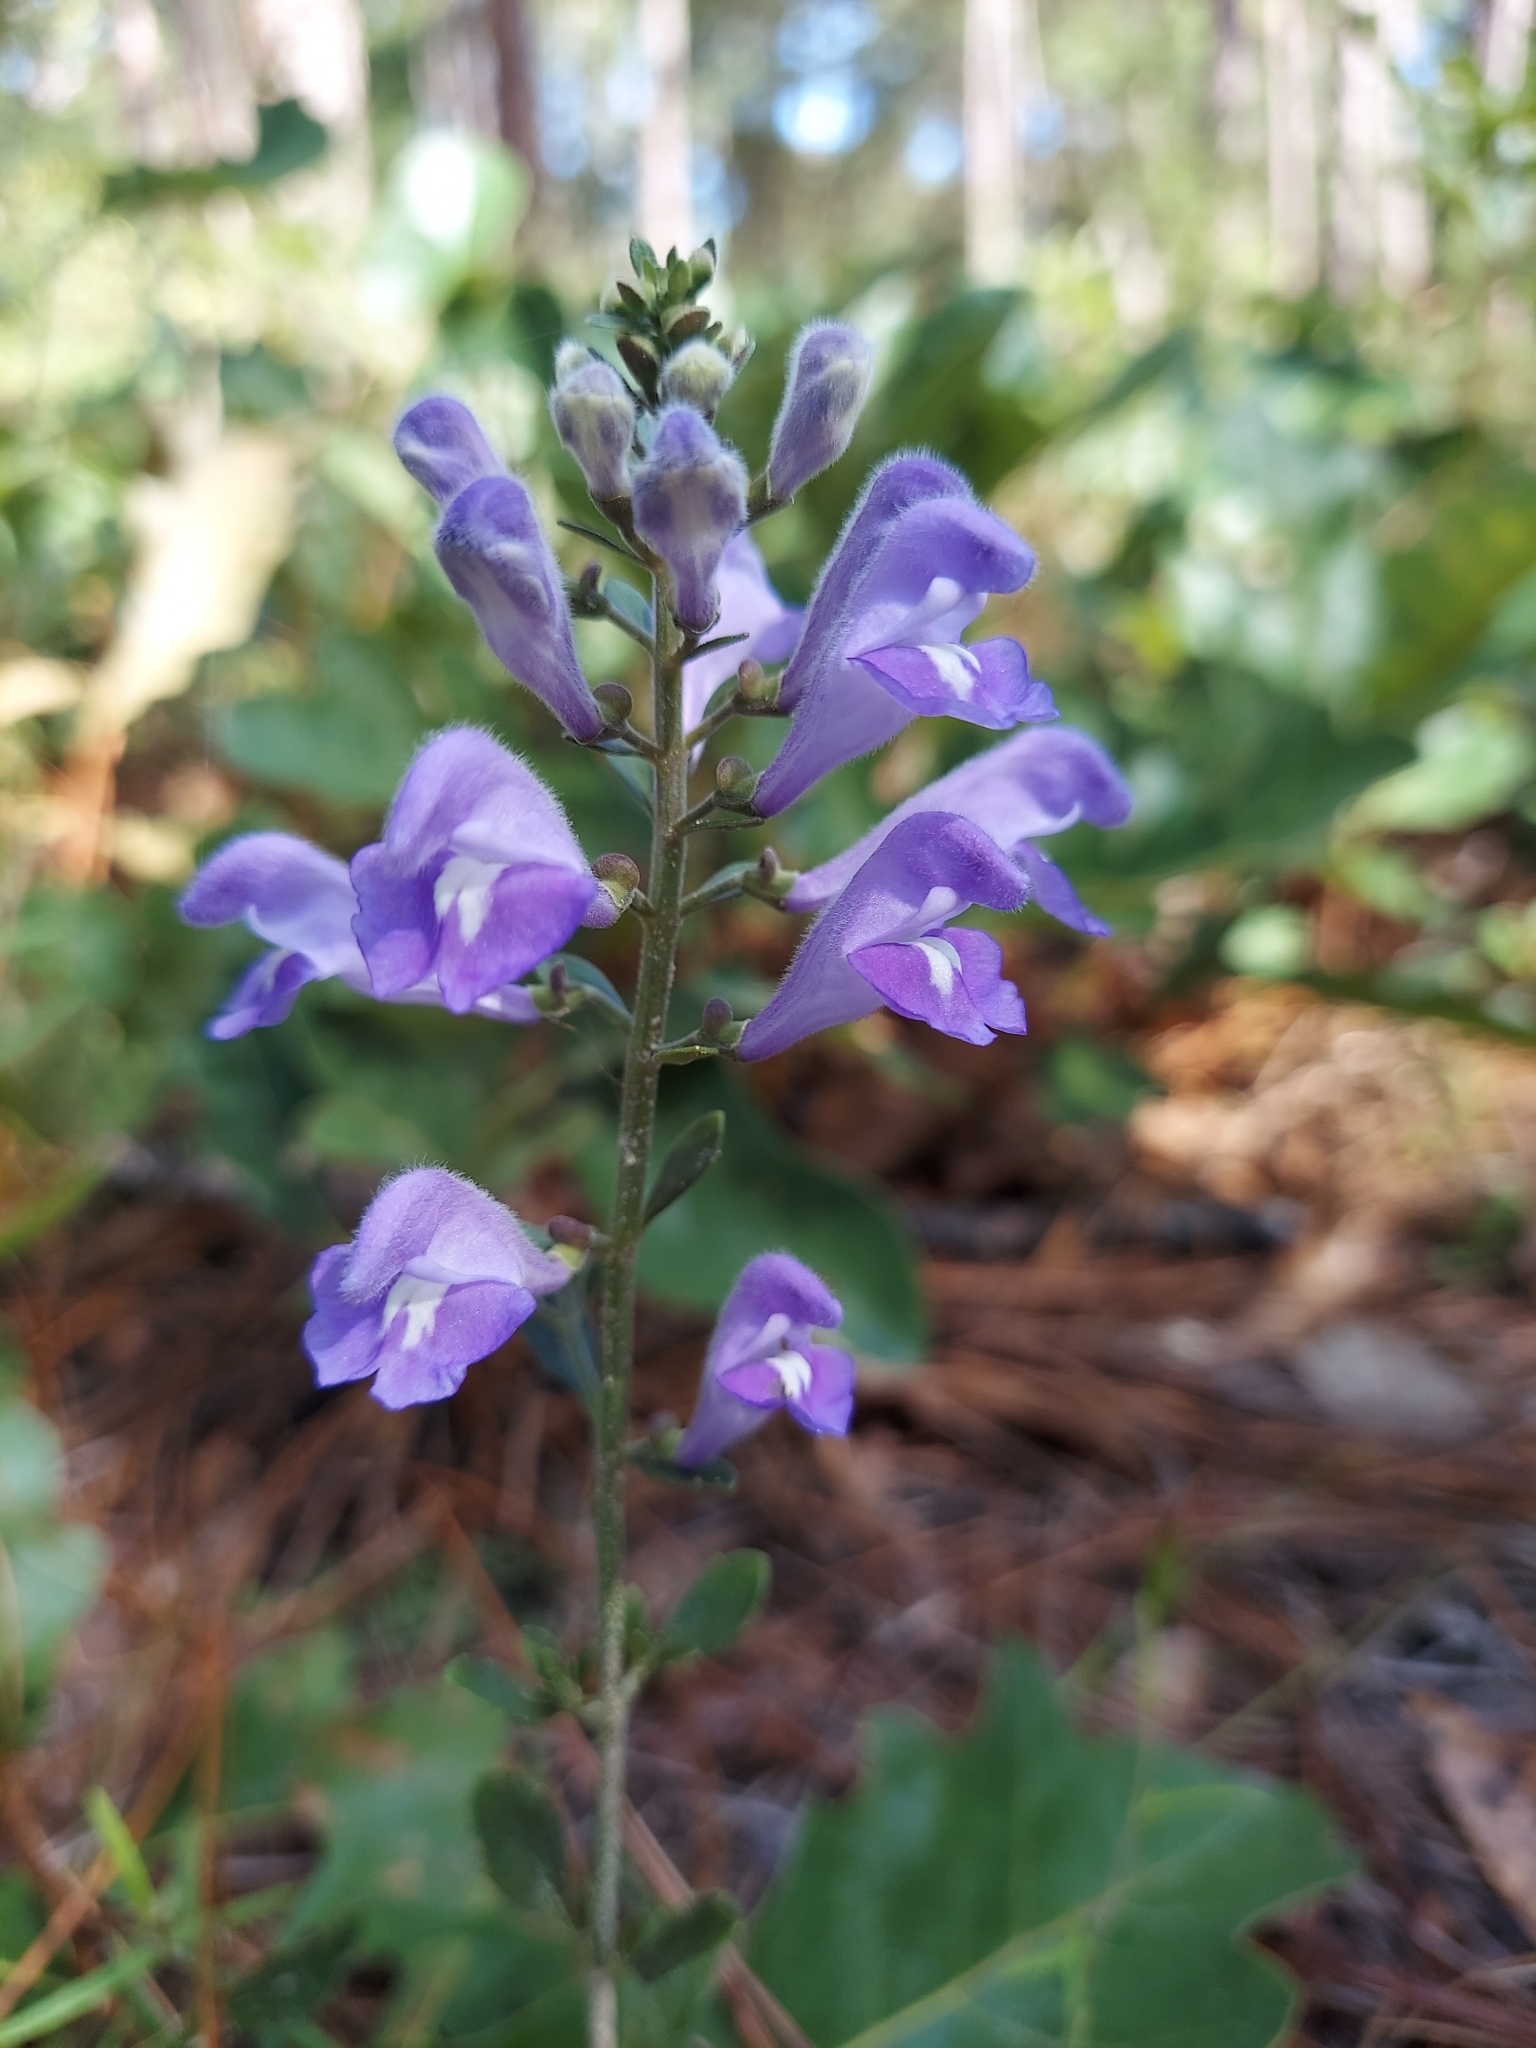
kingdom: Plantae
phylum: Tracheophyta
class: Magnoliopsida
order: Lamiales
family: Lamiaceae
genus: Scutellaria
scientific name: Scutellaria arenicola
